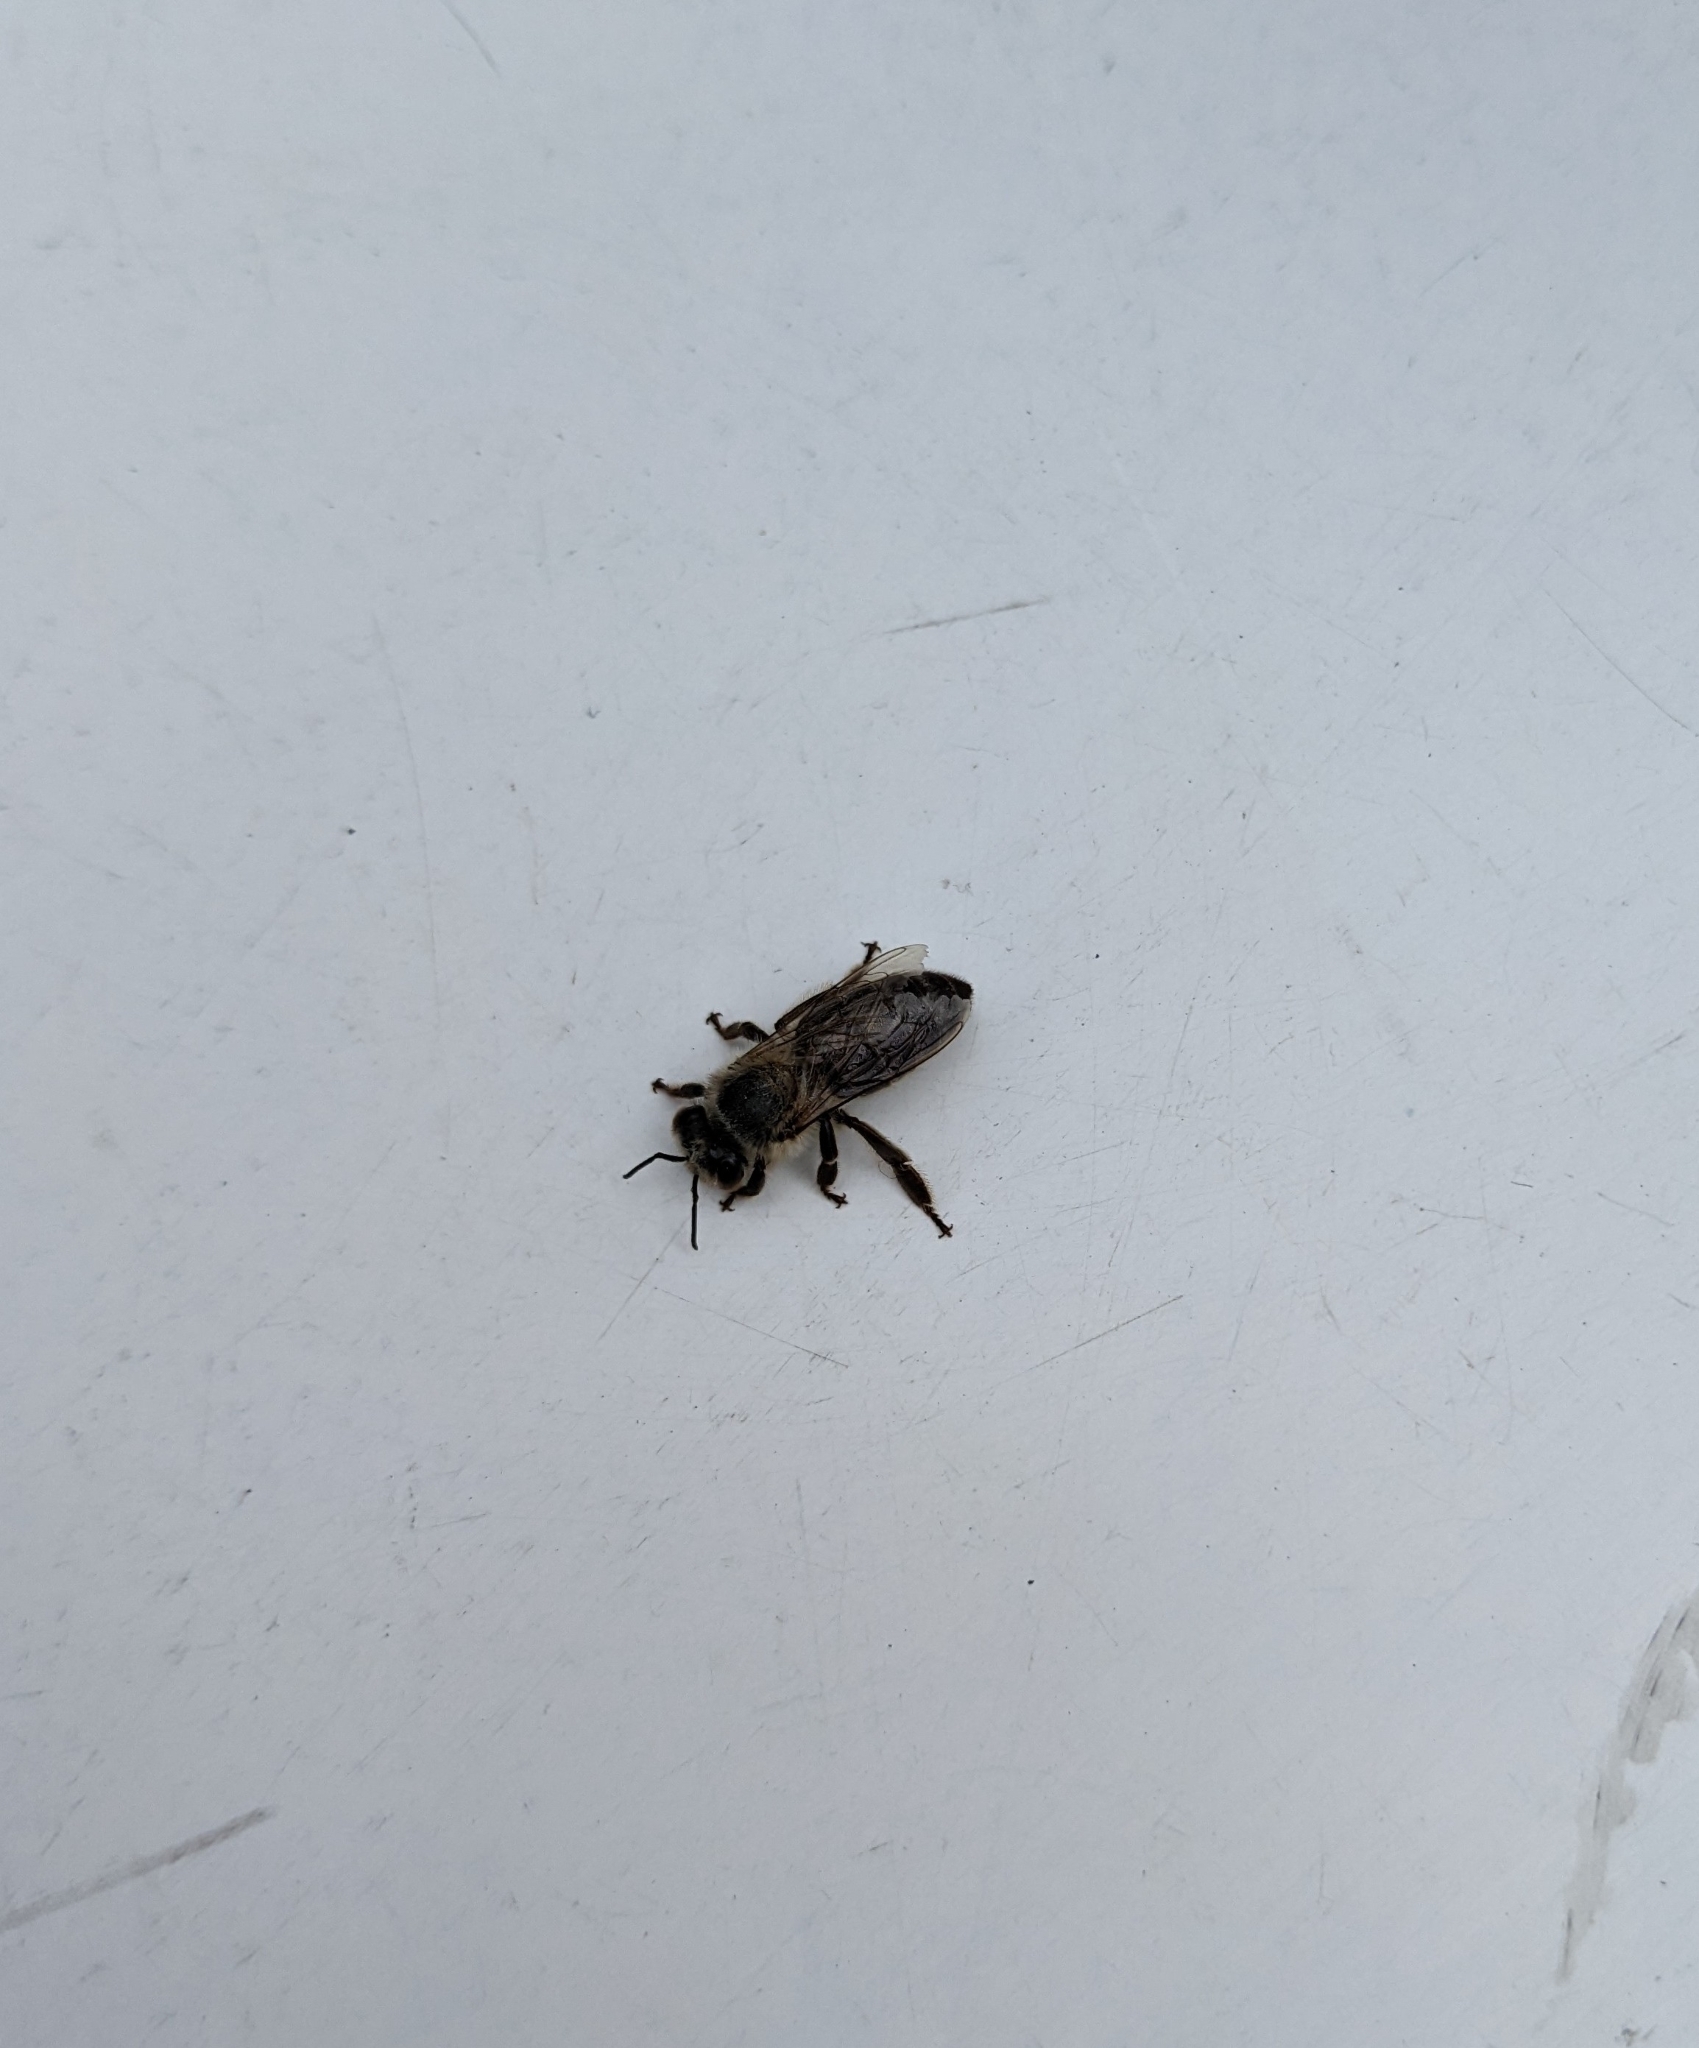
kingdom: Animalia
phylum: Arthropoda
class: Insecta
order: Hymenoptera
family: Apidae
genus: Apis
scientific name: Apis mellifera
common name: Honey bee
